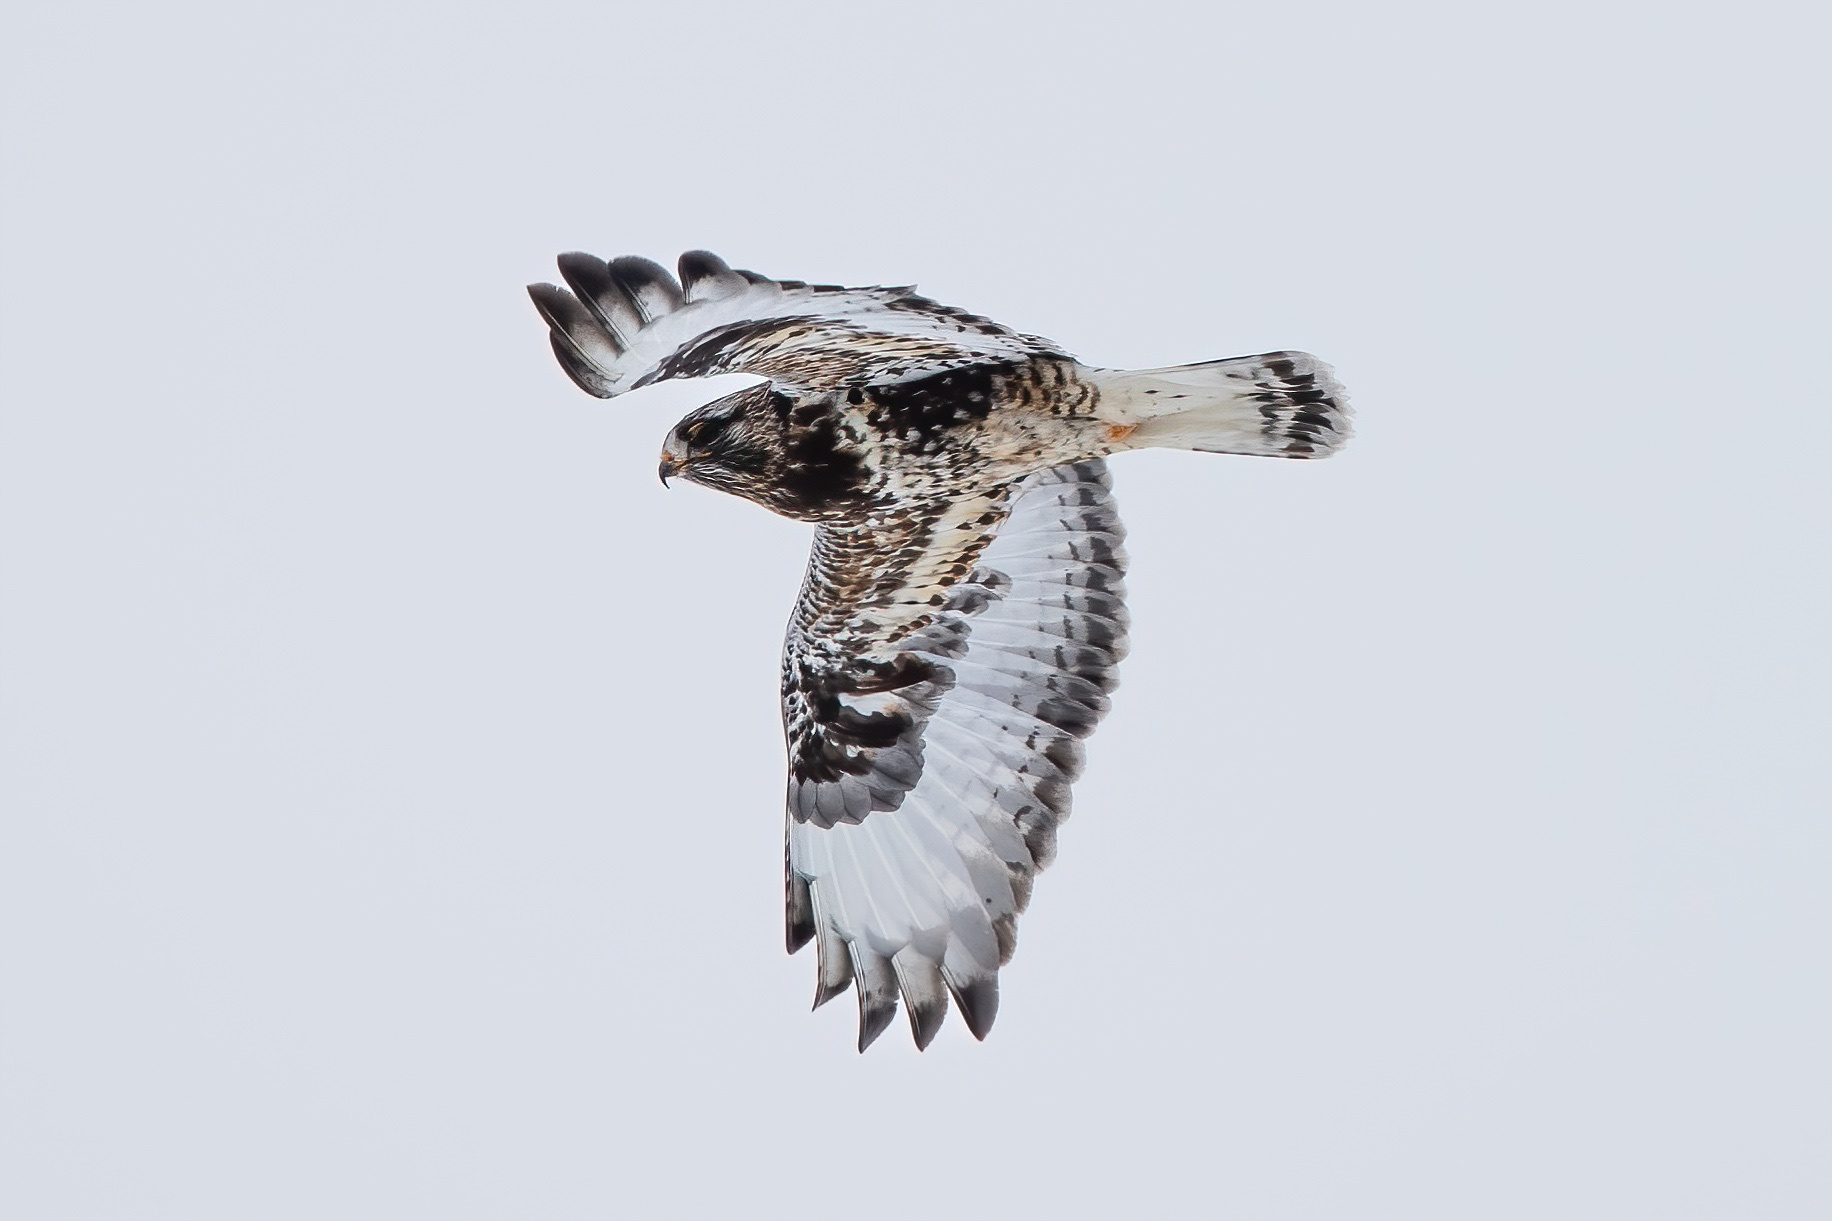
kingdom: Animalia
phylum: Chordata
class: Aves
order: Accipitriformes
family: Accipitridae
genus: Buteo
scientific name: Buteo lagopus
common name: Rough-legged buzzard
